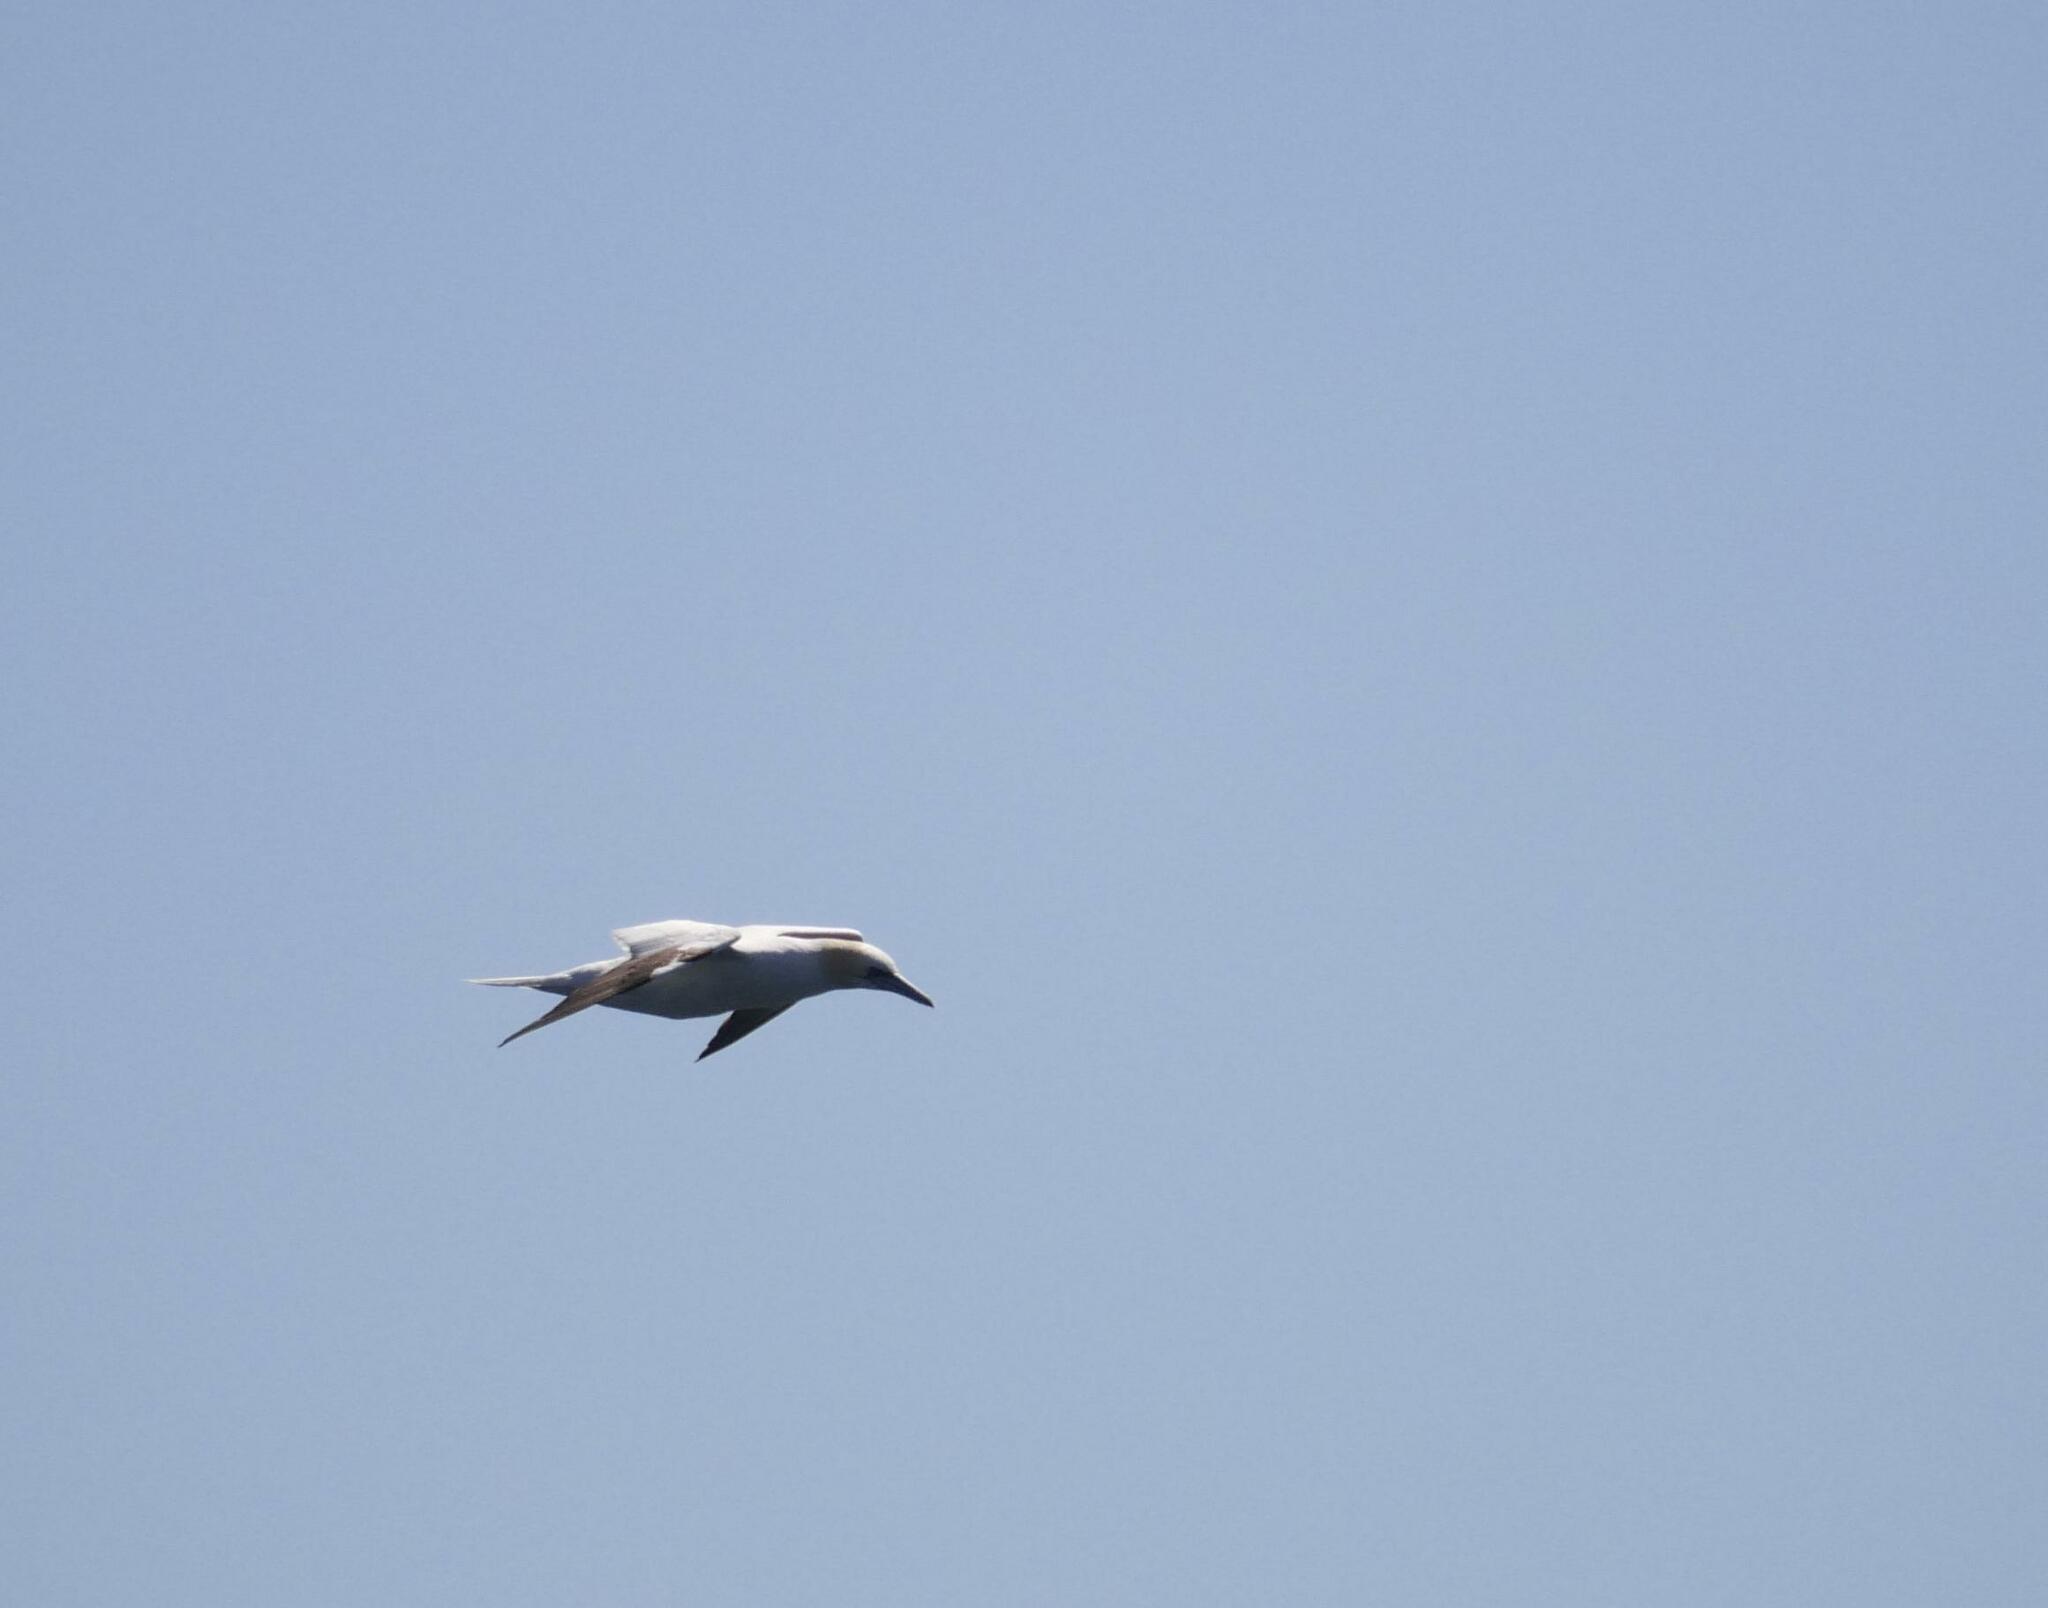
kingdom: Animalia
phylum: Chordata
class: Aves
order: Suliformes
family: Sulidae
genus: Morus
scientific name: Morus bassanus
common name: Northern gannet
